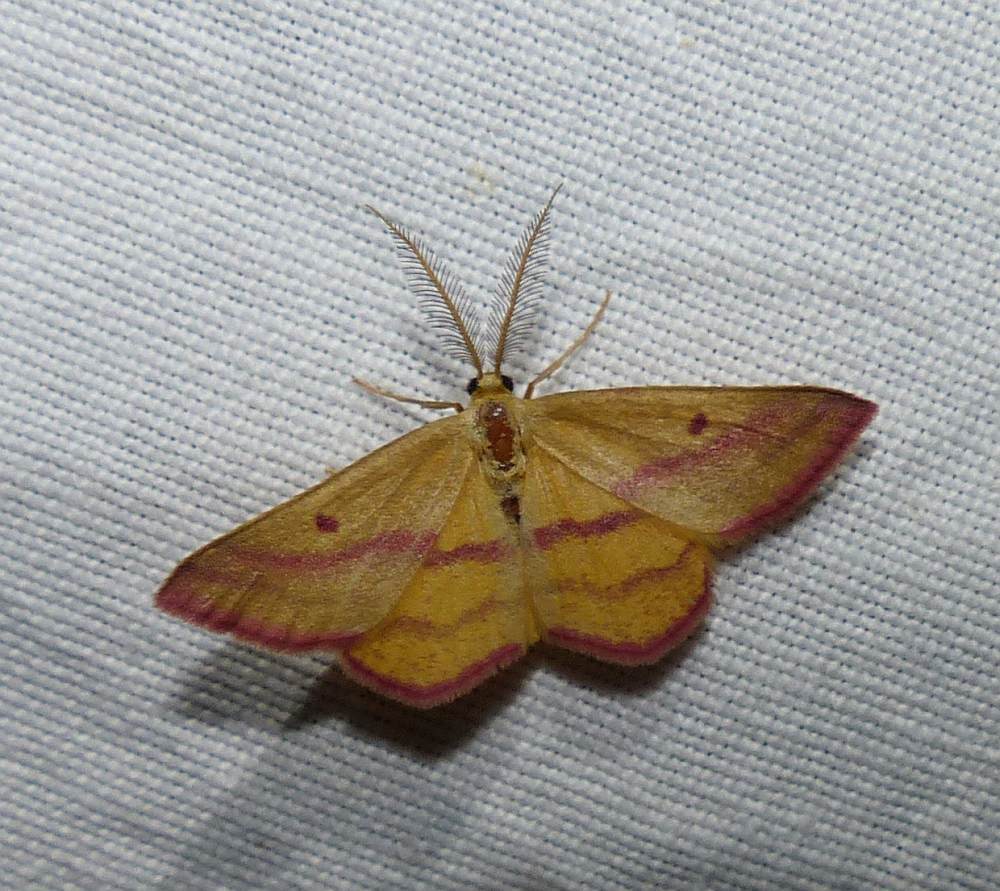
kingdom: Animalia
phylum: Arthropoda
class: Insecta
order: Lepidoptera
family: Geometridae
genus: Haematopis
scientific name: Haematopis grataria
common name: Chickweed geometer
